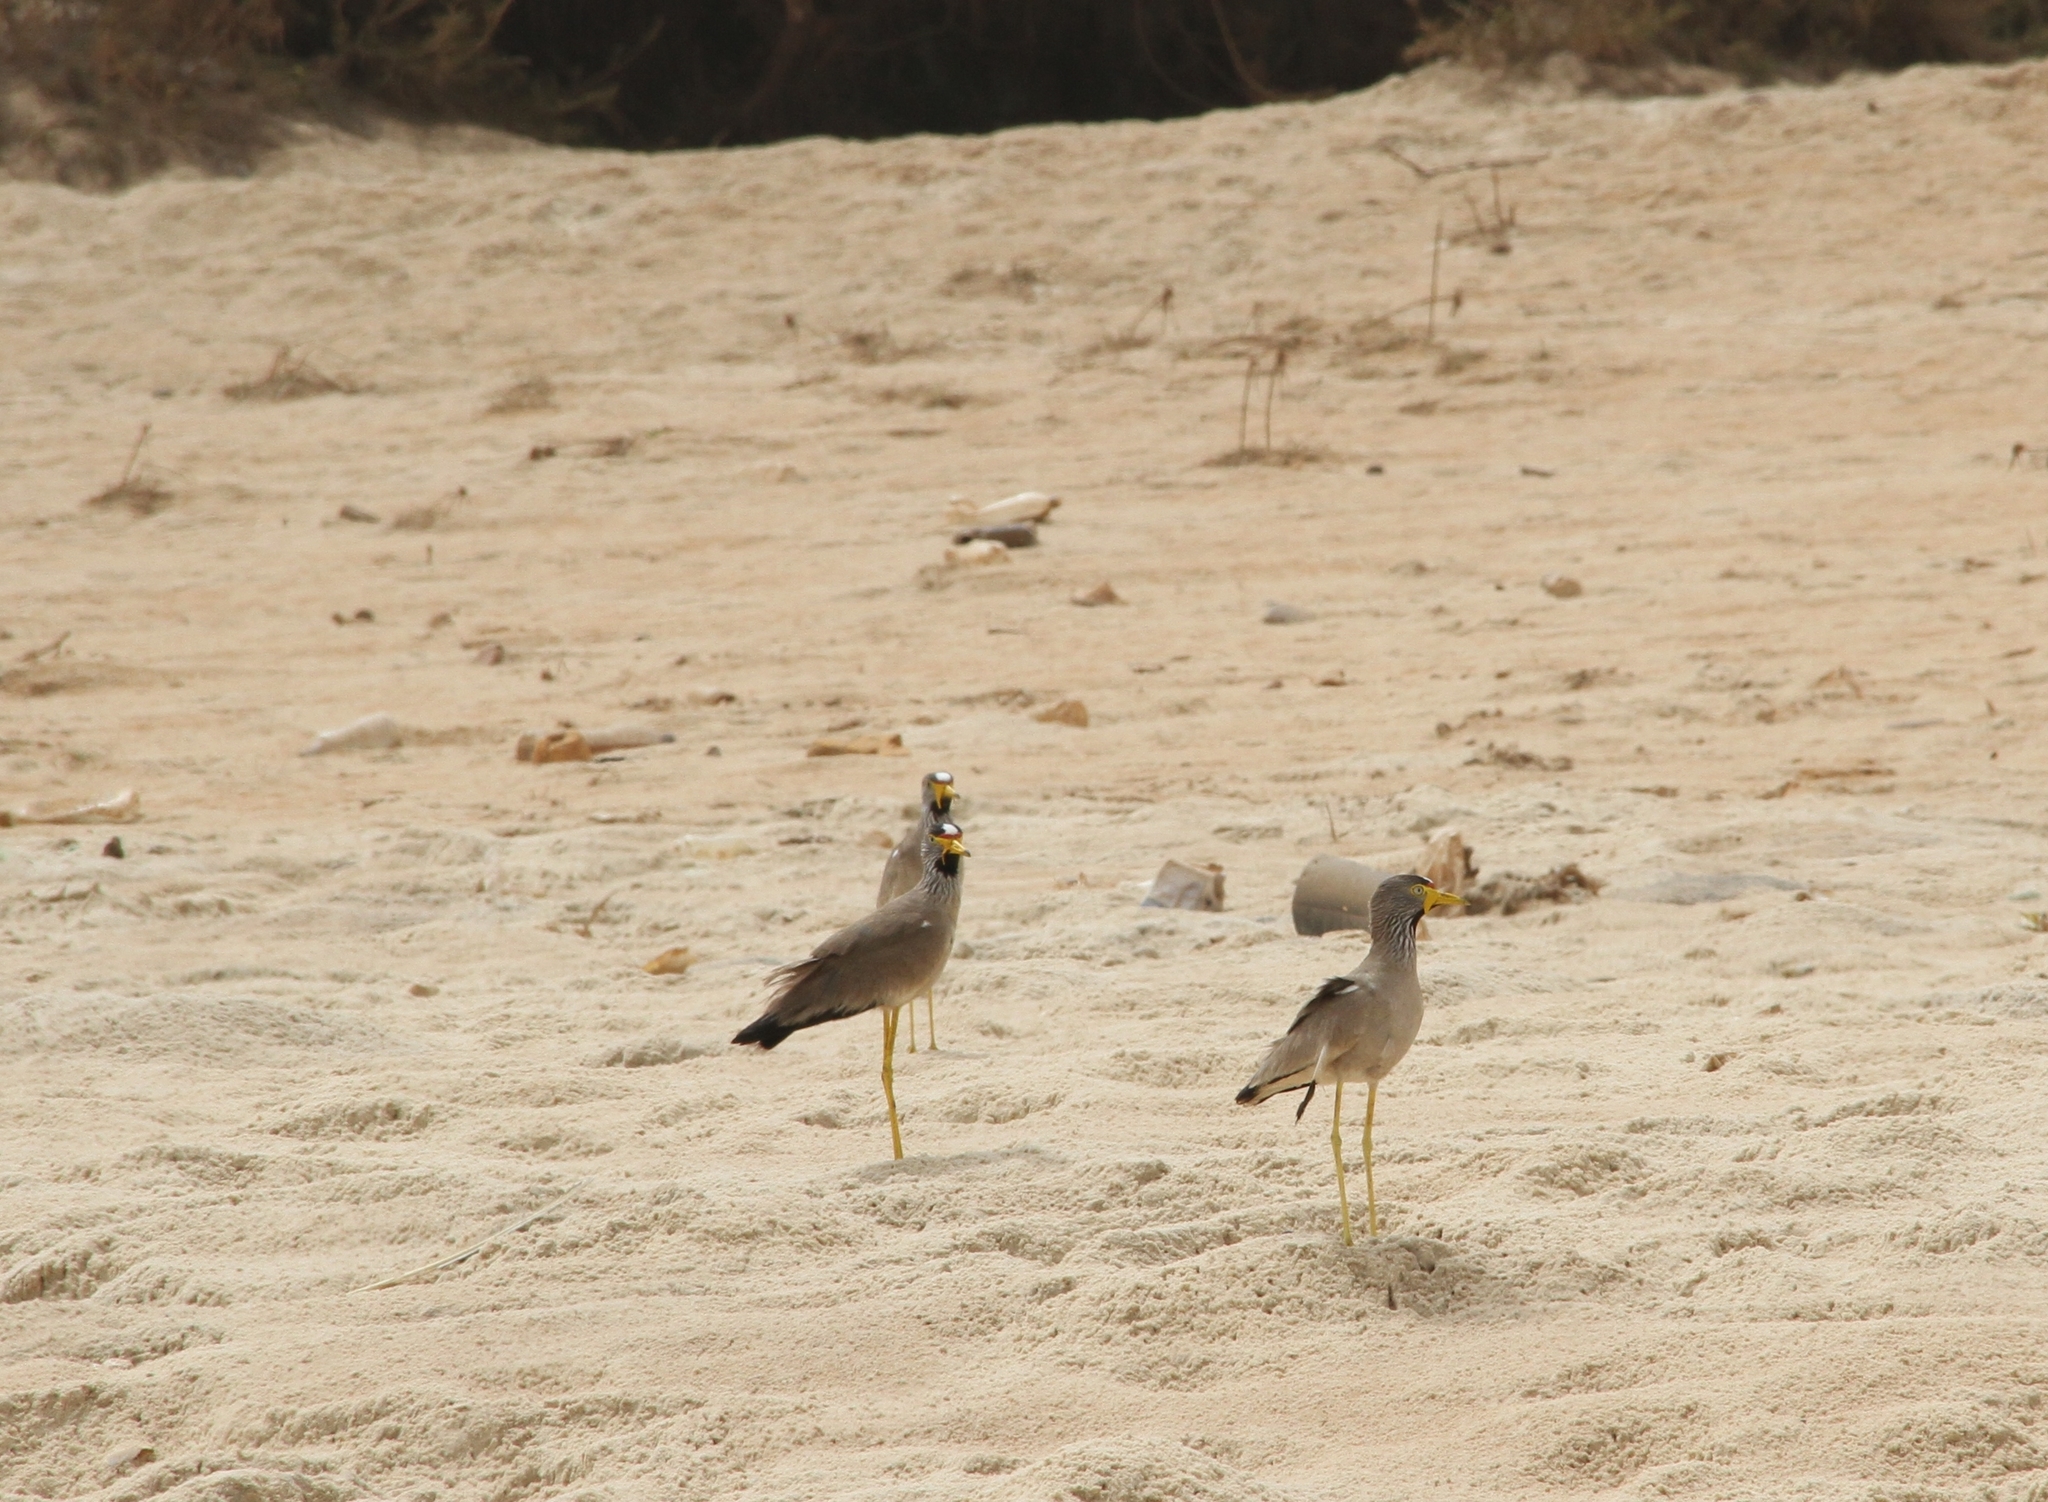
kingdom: Animalia
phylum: Chordata
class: Aves
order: Charadriiformes
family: Charadriidae
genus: Vanellus
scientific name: Vanellus senegallus
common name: African wattled lapwing
